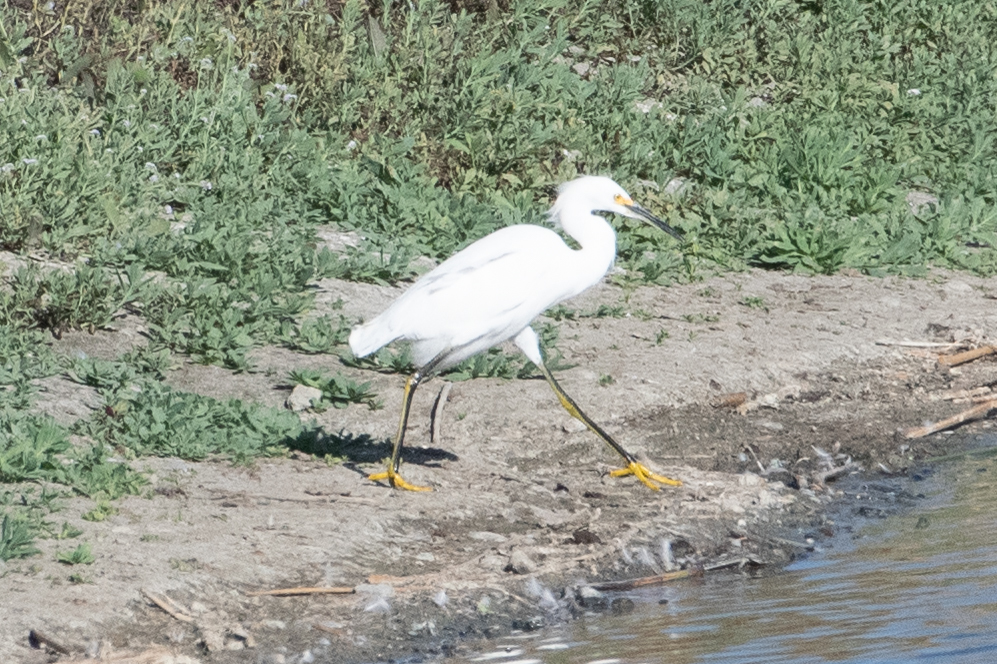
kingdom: Animalia
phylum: Chordata
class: Aves
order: Pelecaniformes
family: Ardeidae
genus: Egretta
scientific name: Egretta thula
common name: Snowy egret
